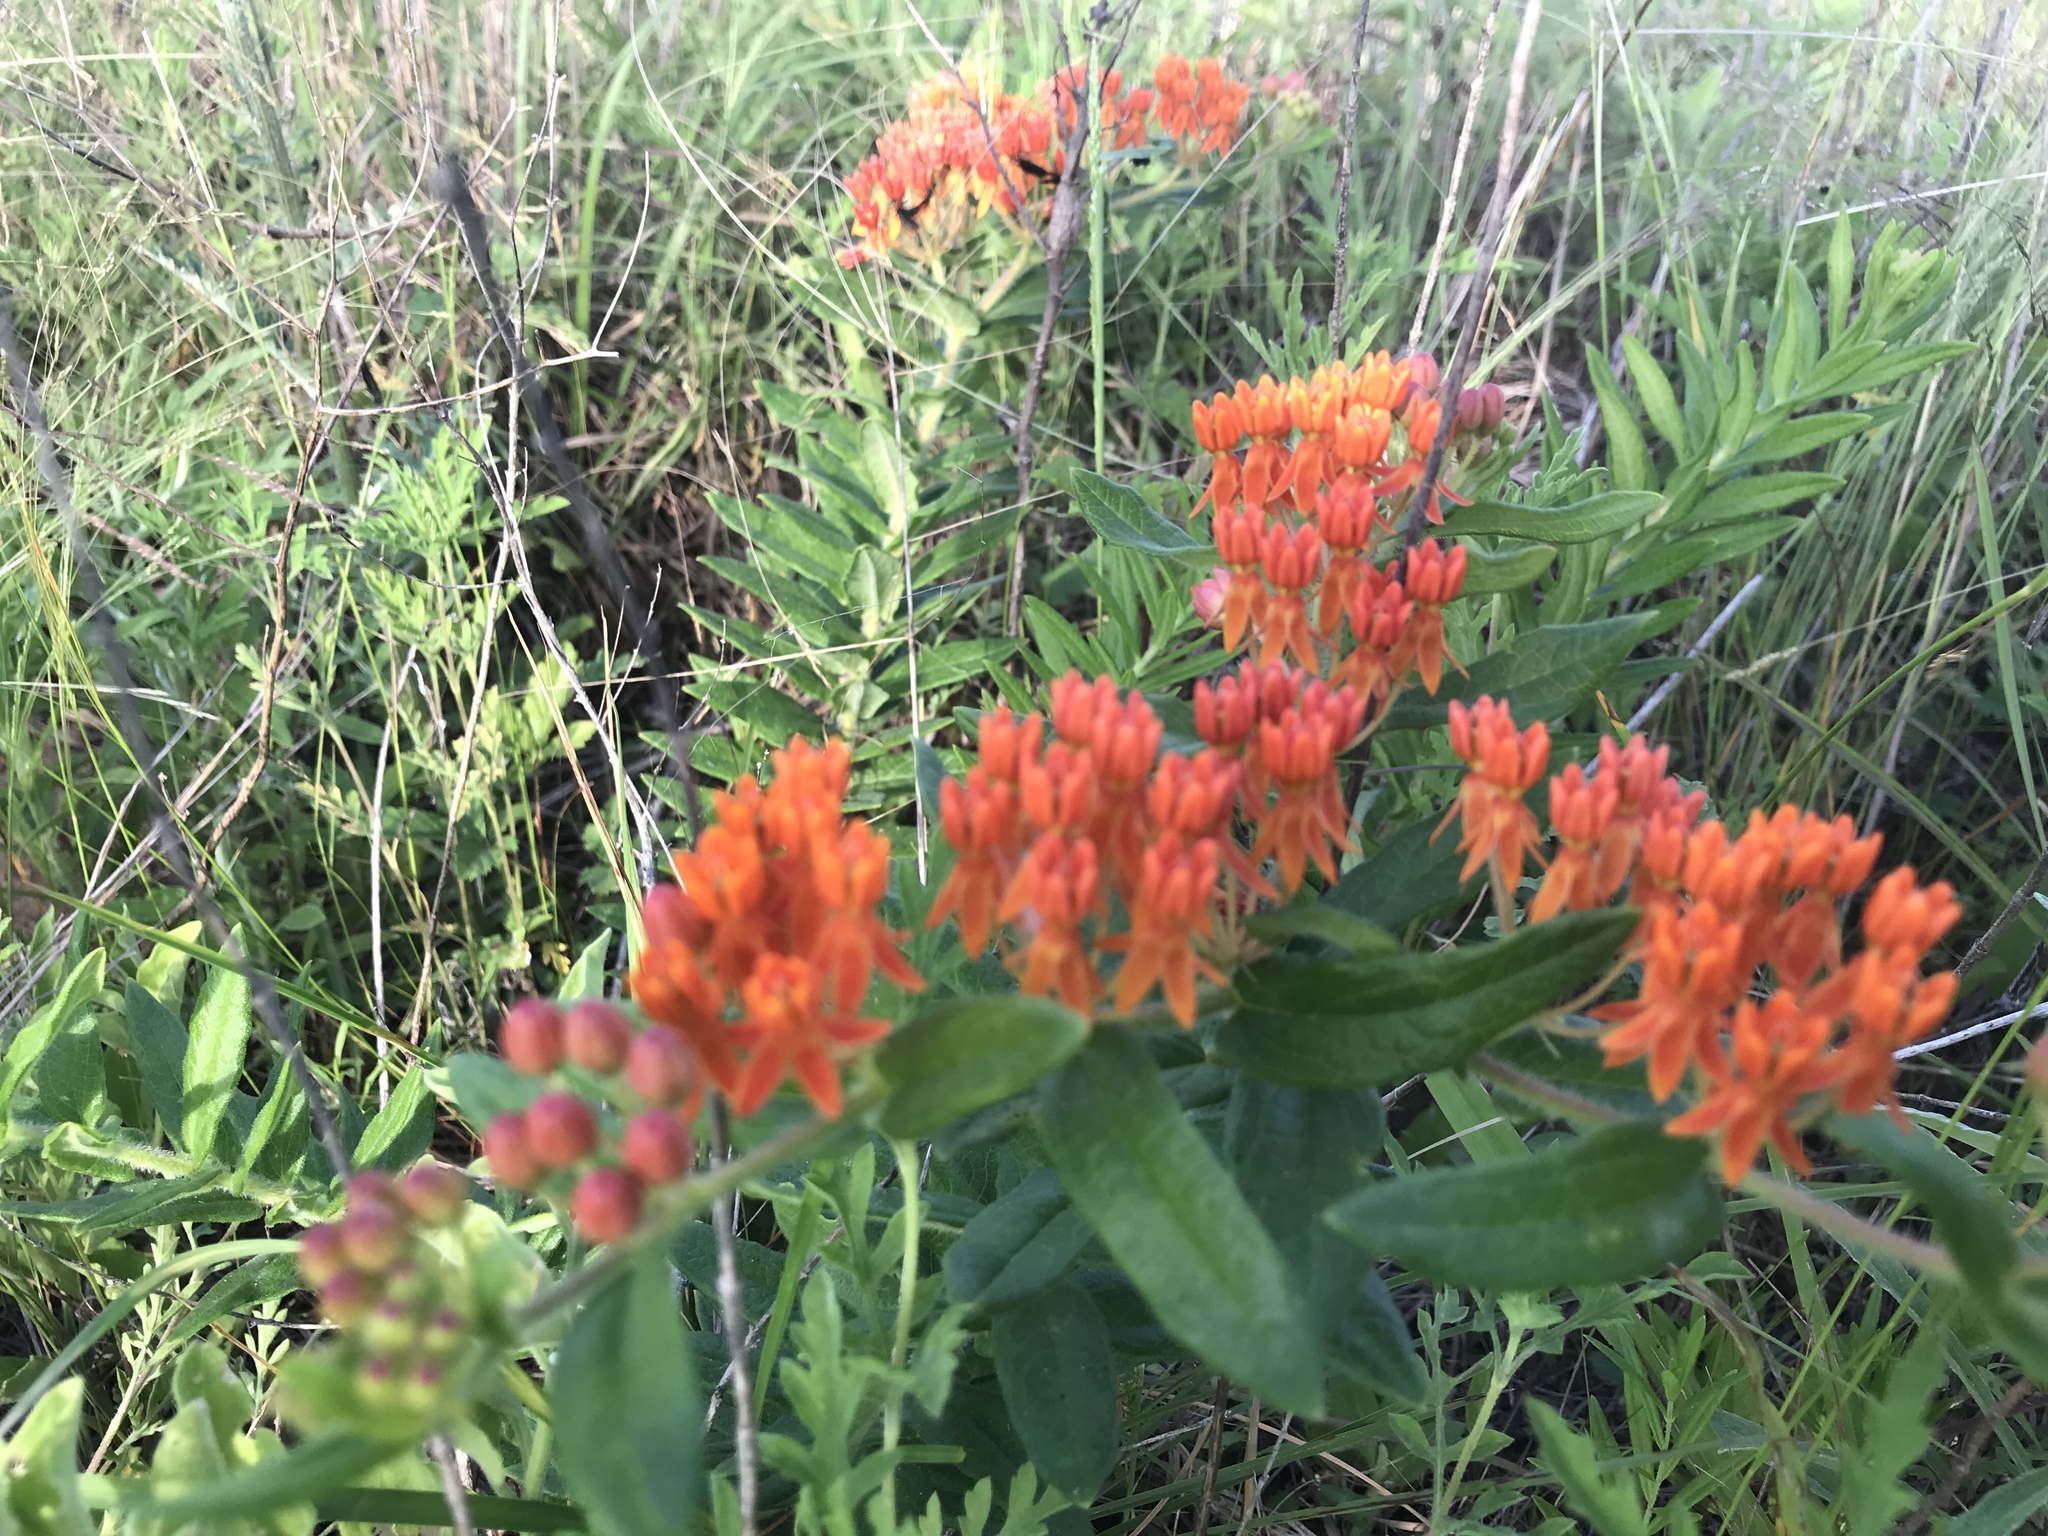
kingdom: Plantae
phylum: Tracheophyta
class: Magnoliopsida
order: Gentianales
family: Apocynaceae
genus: Asclepias
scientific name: Asclepias tuberosa
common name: Butterfly milkweed
